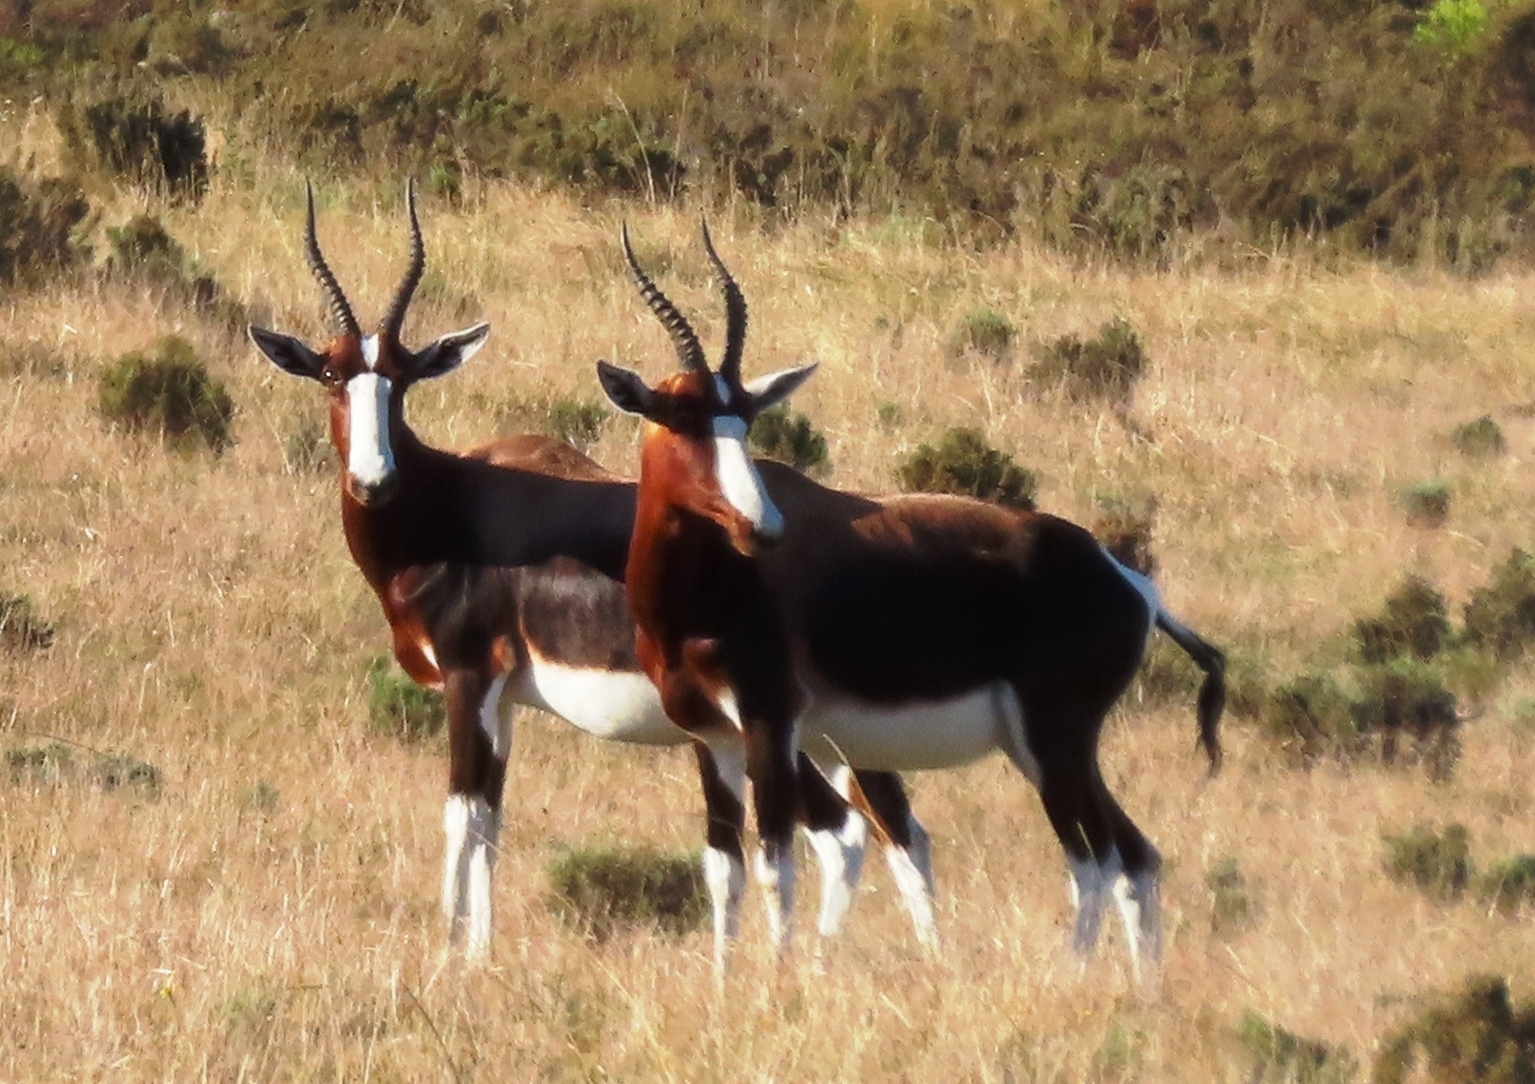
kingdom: Animalia
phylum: Chordata
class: Mammalia
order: Artiodactyla
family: Bovidae
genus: Damaliscus
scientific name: Damaliscus pygargus
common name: Bontebok
